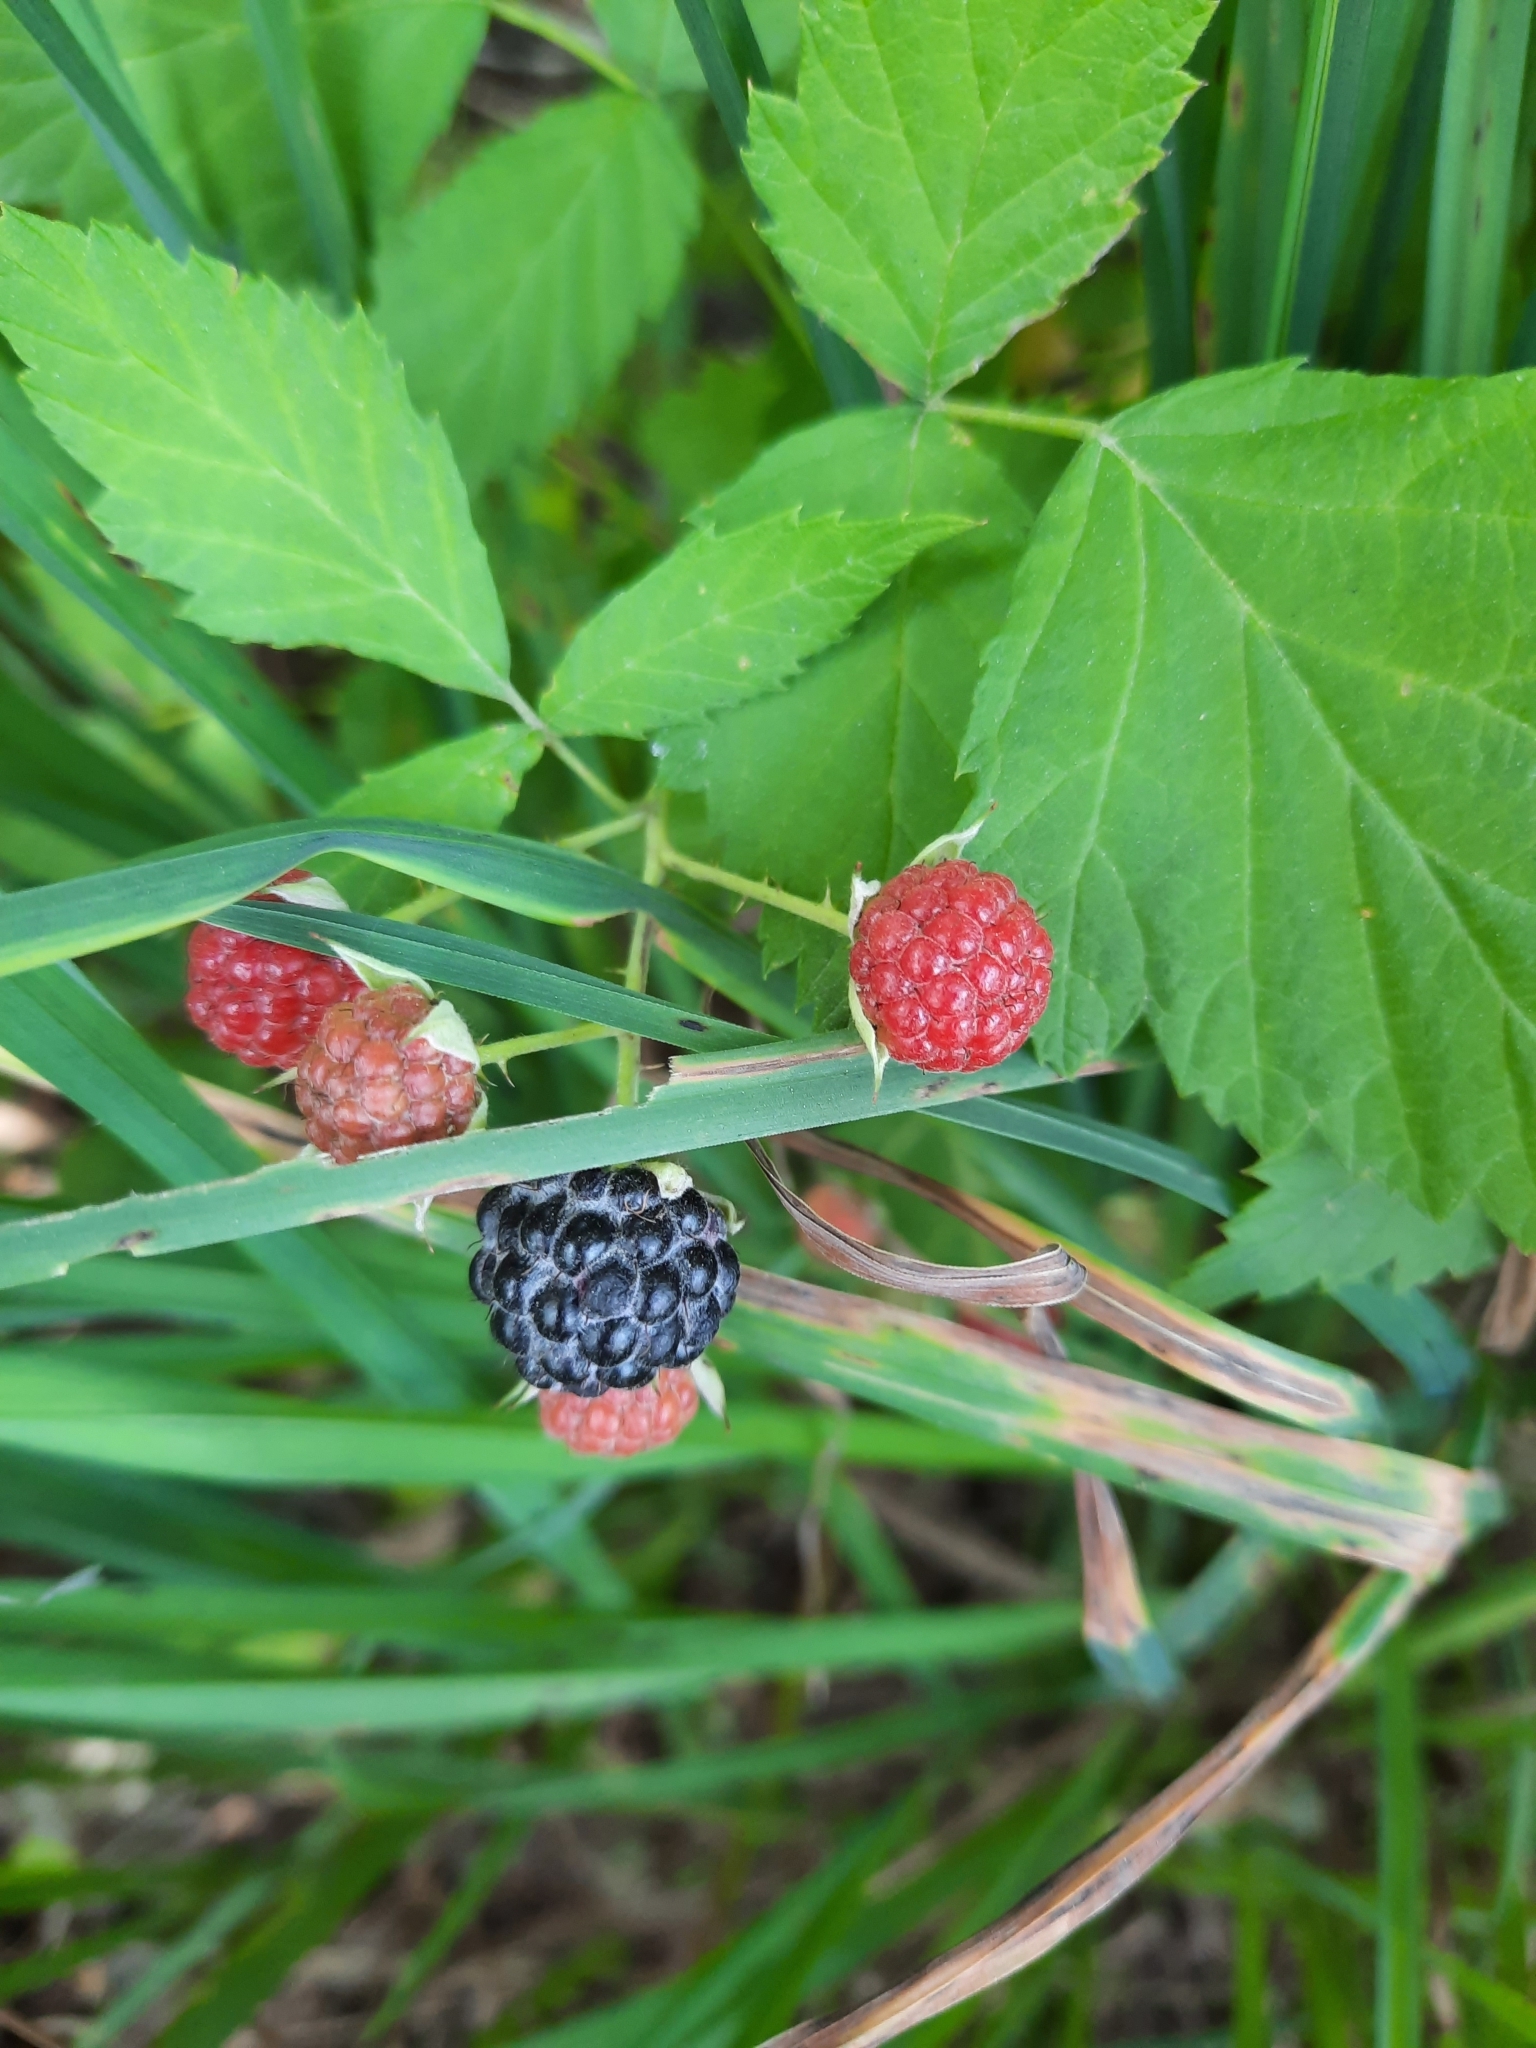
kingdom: Plantae
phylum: Tracheophyta
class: Magnoliopsida
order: Rosales
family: Rosaceae
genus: Rubus
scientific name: Rubus occidentalis
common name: Black raspberry
